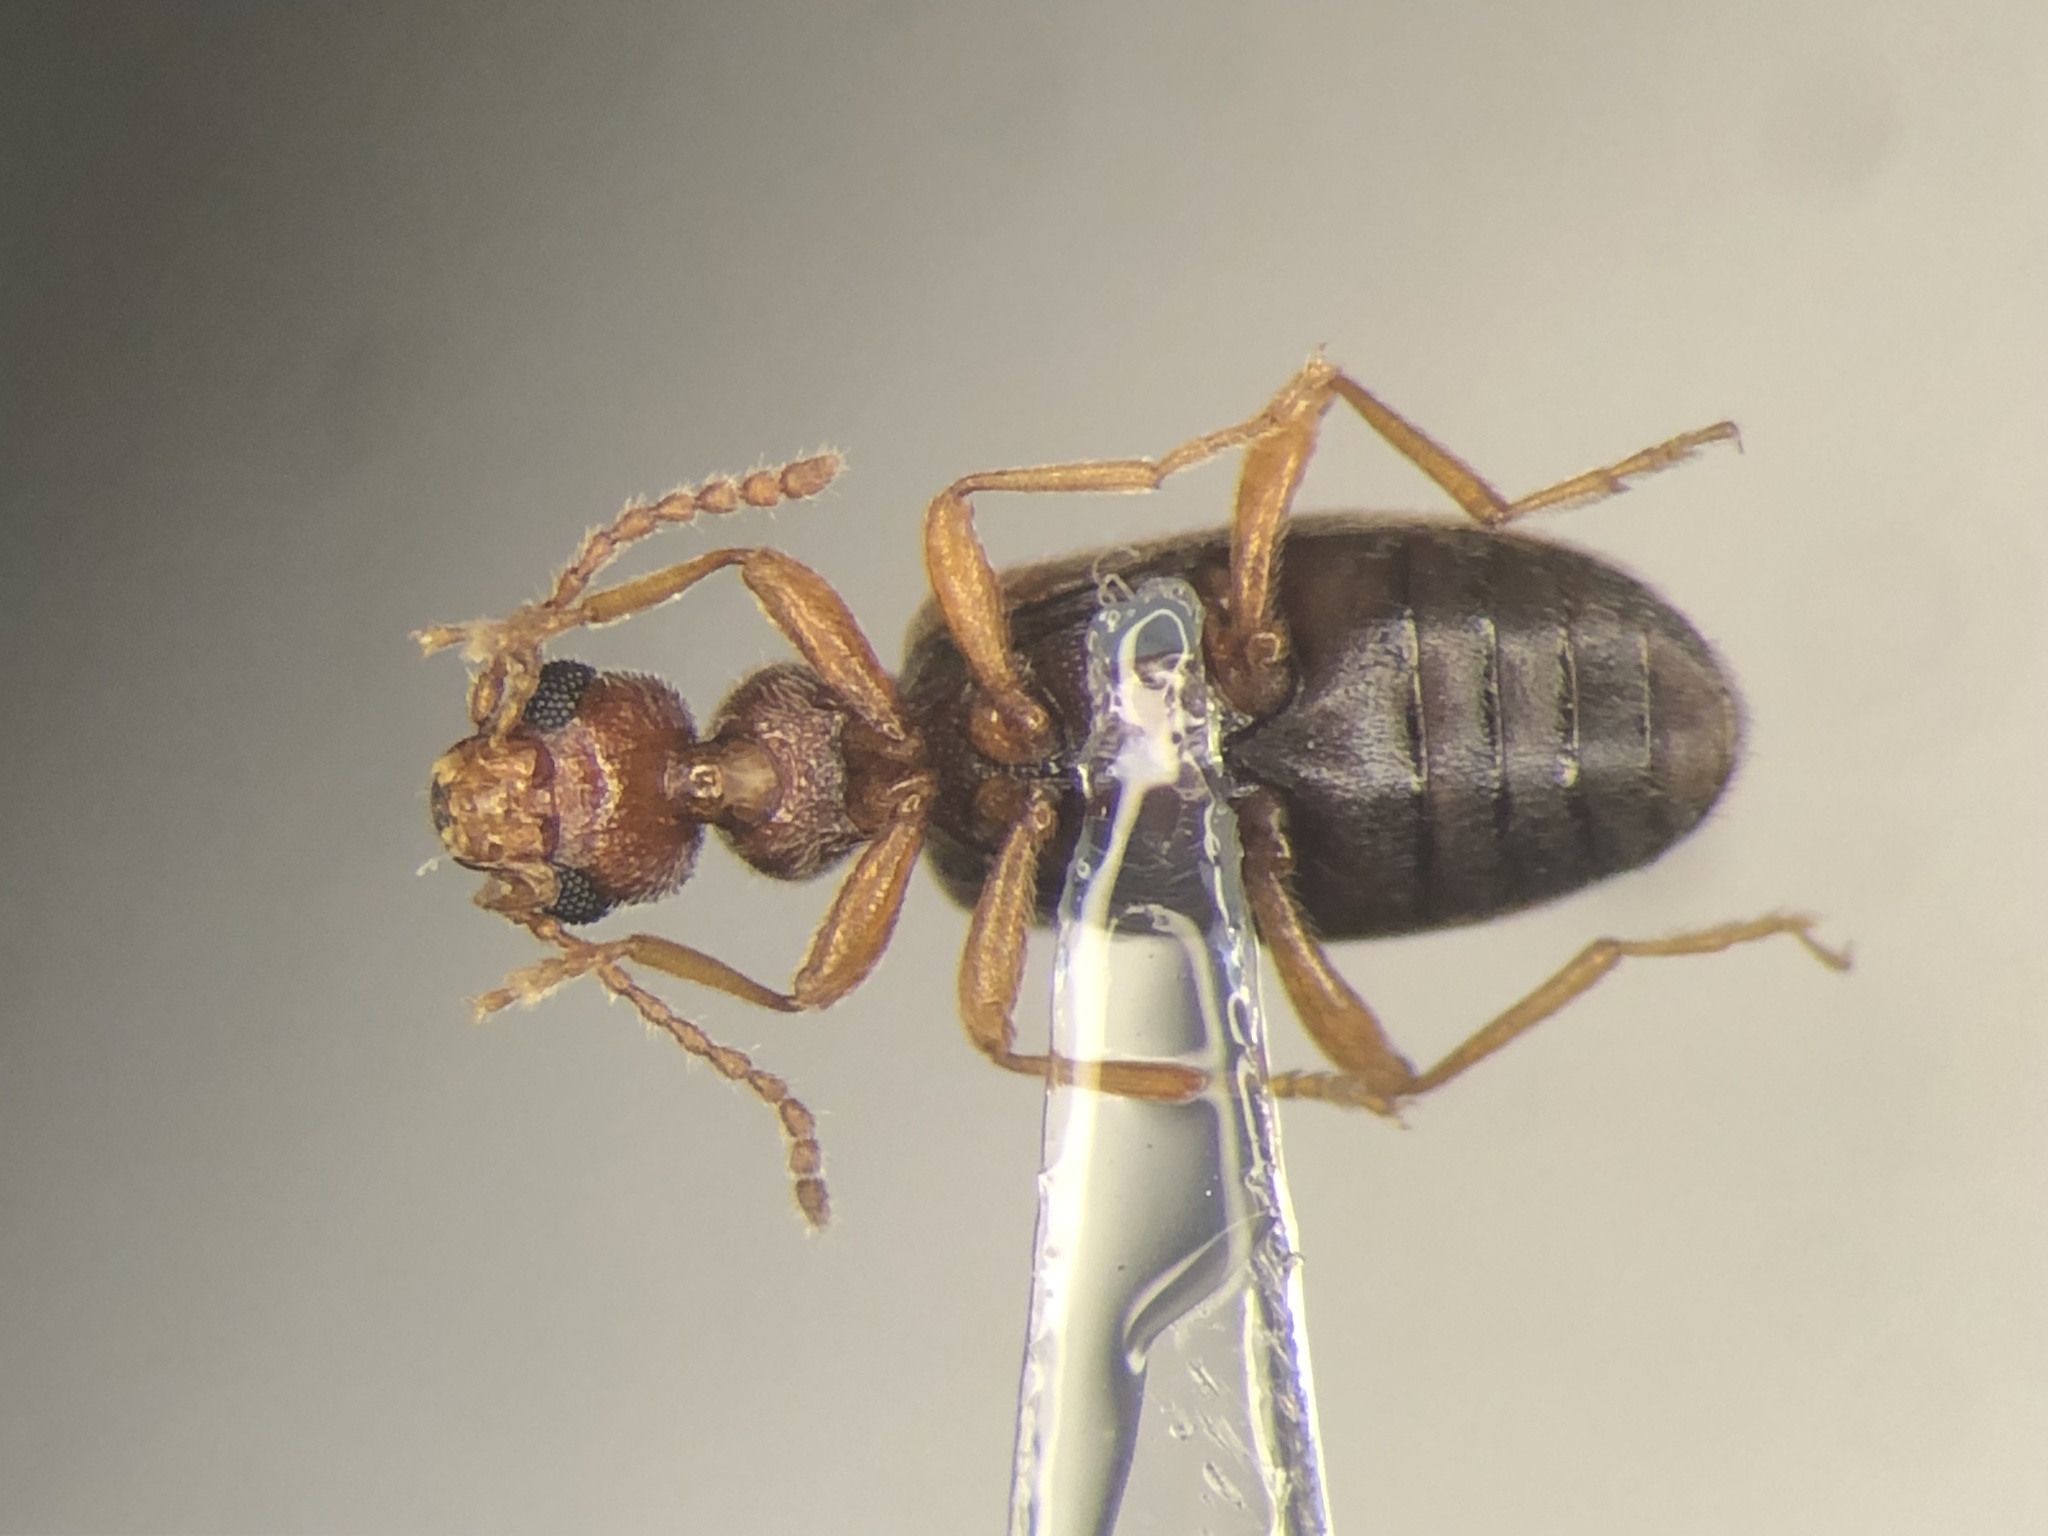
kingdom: Animalia
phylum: Arthropoda
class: Insecta
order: Coleoptera
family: Anthicidae
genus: Anthicus
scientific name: Anthicus cervinus
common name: Cloudy flower beetle
